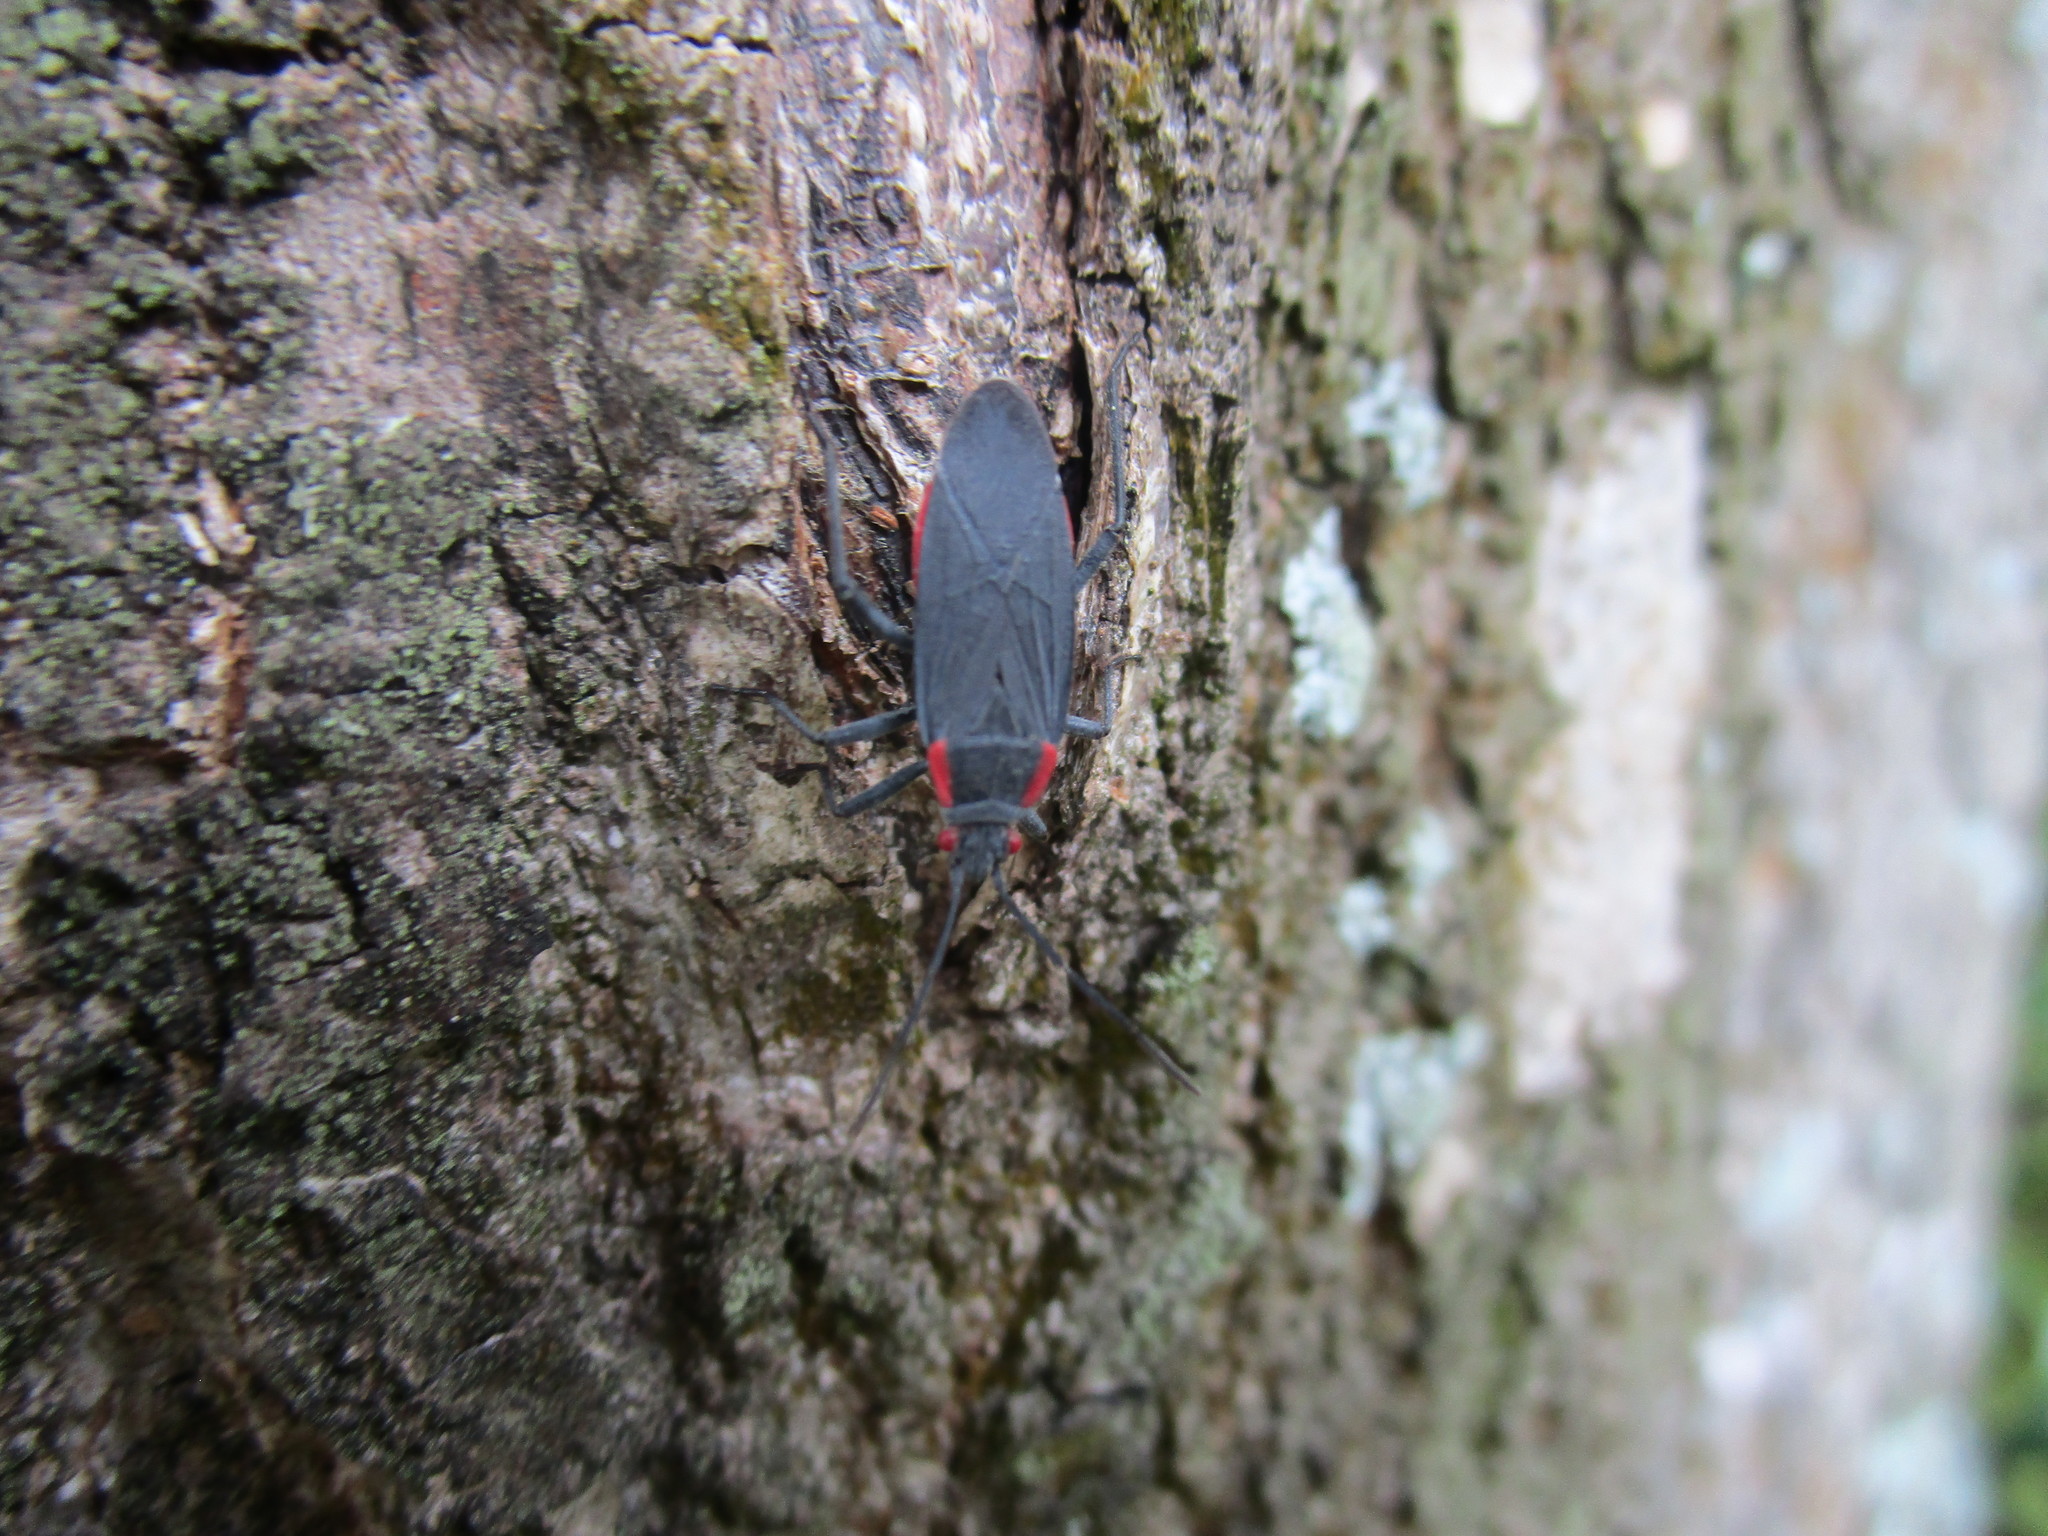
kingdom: Animalia
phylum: Arthropoda
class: Insecta
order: Hemiptera
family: Rhopalidae
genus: Jadera
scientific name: Jadera haematoloma
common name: Red-shouldered bug
